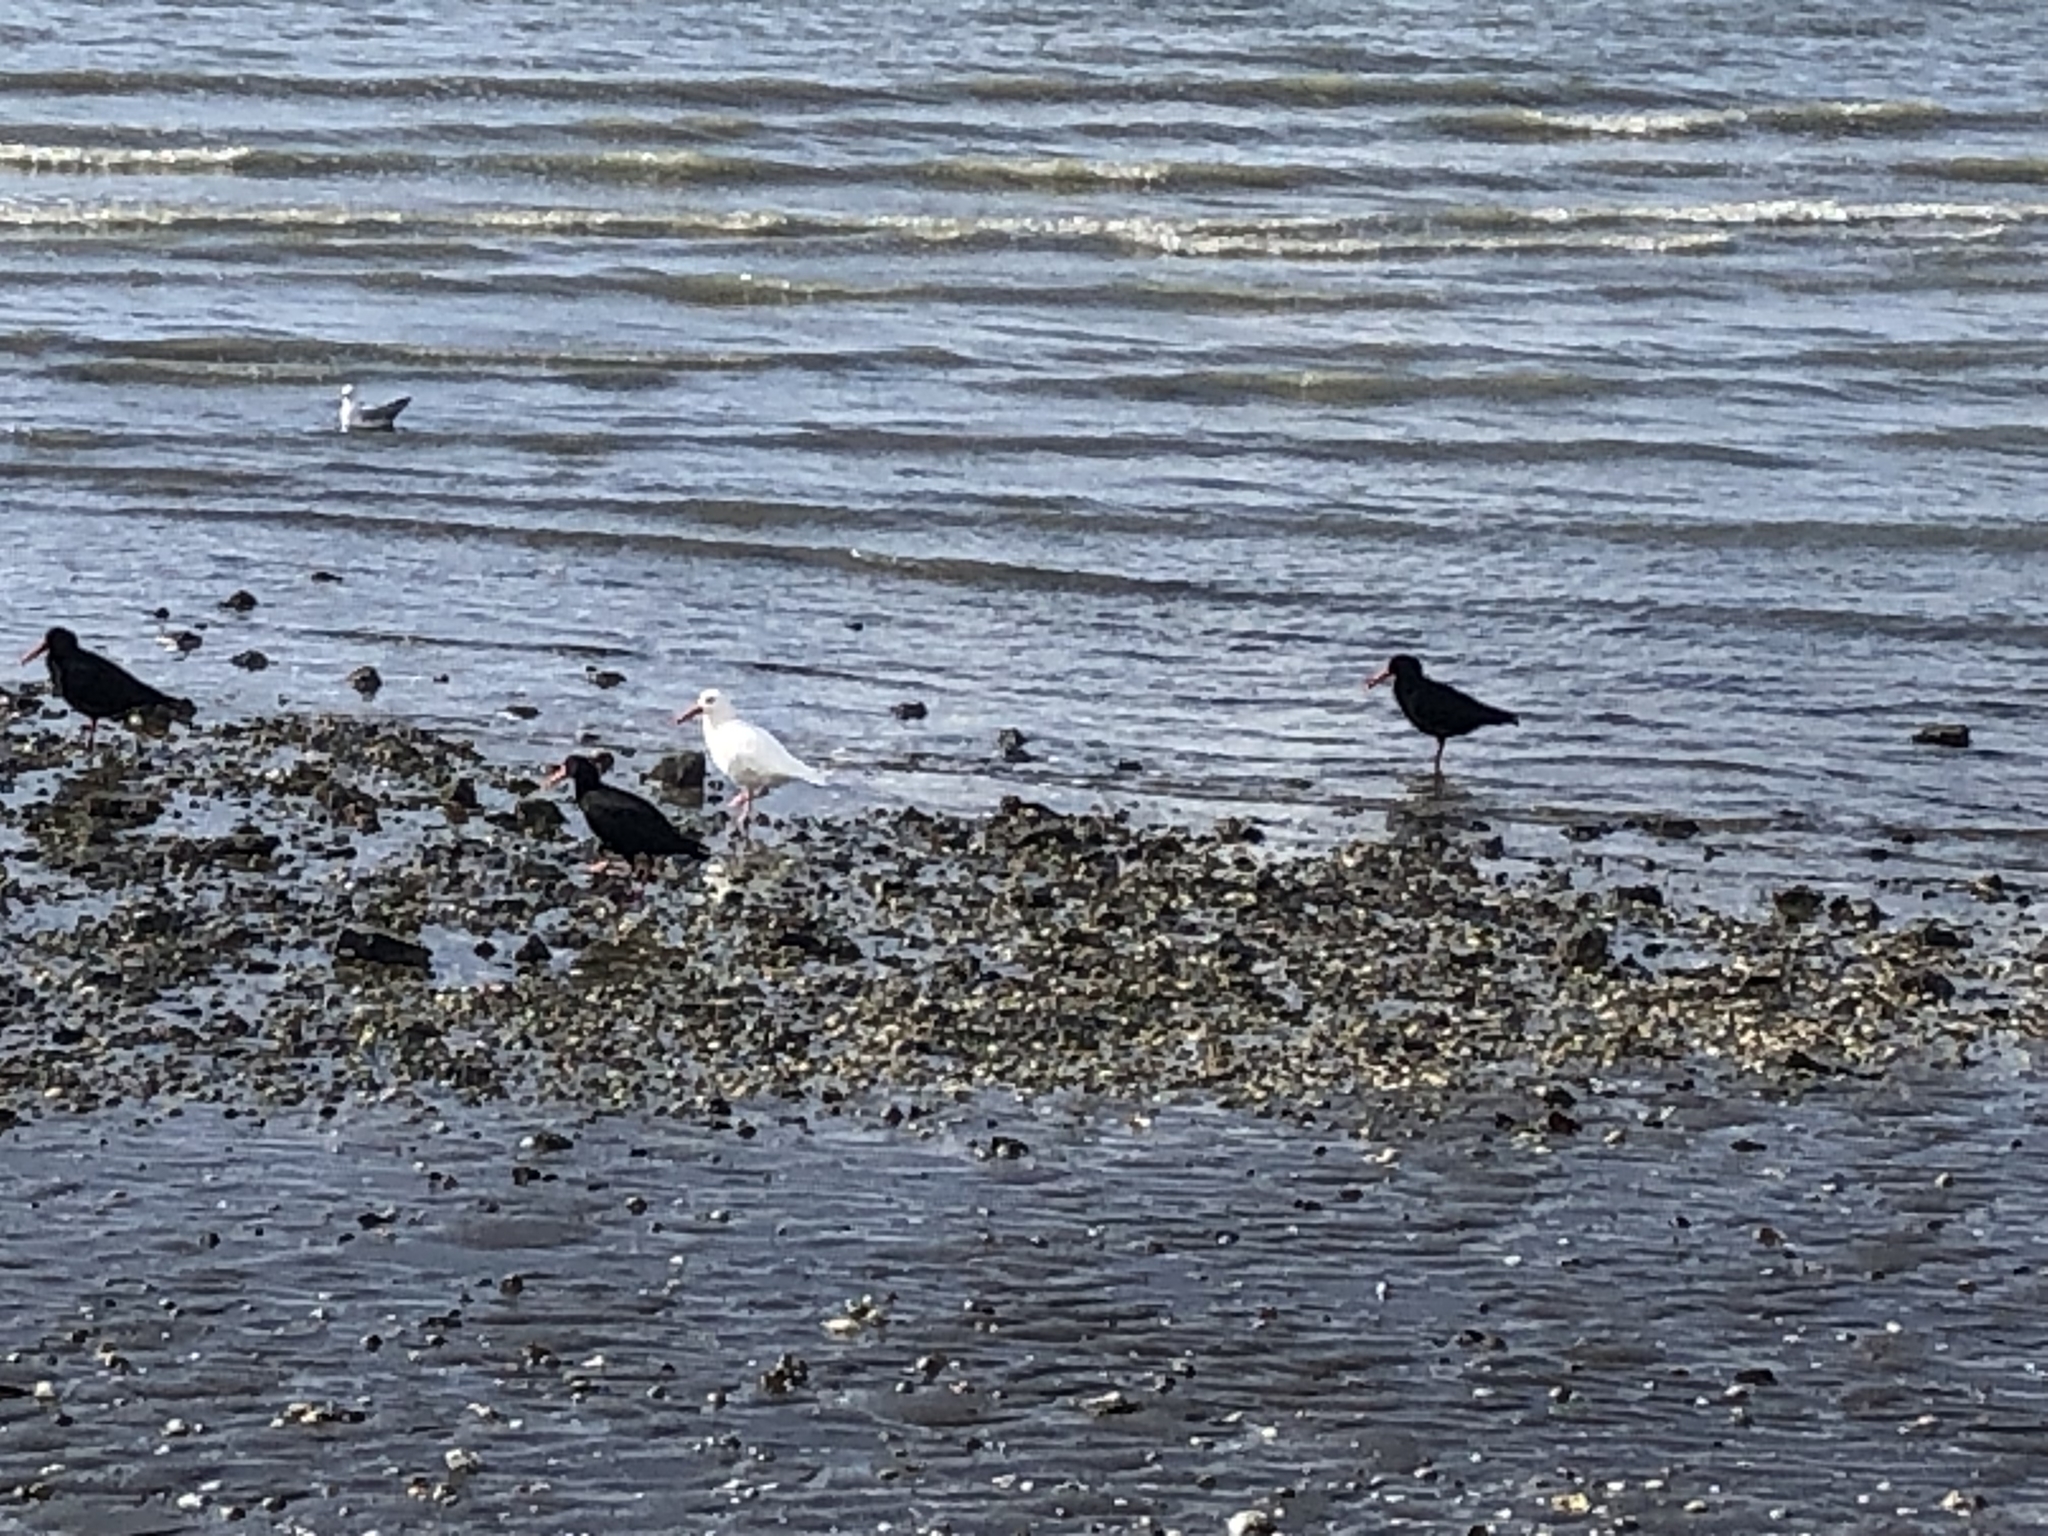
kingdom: Animalia
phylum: Chordata
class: Aves
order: Charadriiformes
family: Haematopodidae
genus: Haematopus
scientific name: Haematopus unicolor
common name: Variable oystercatcher
